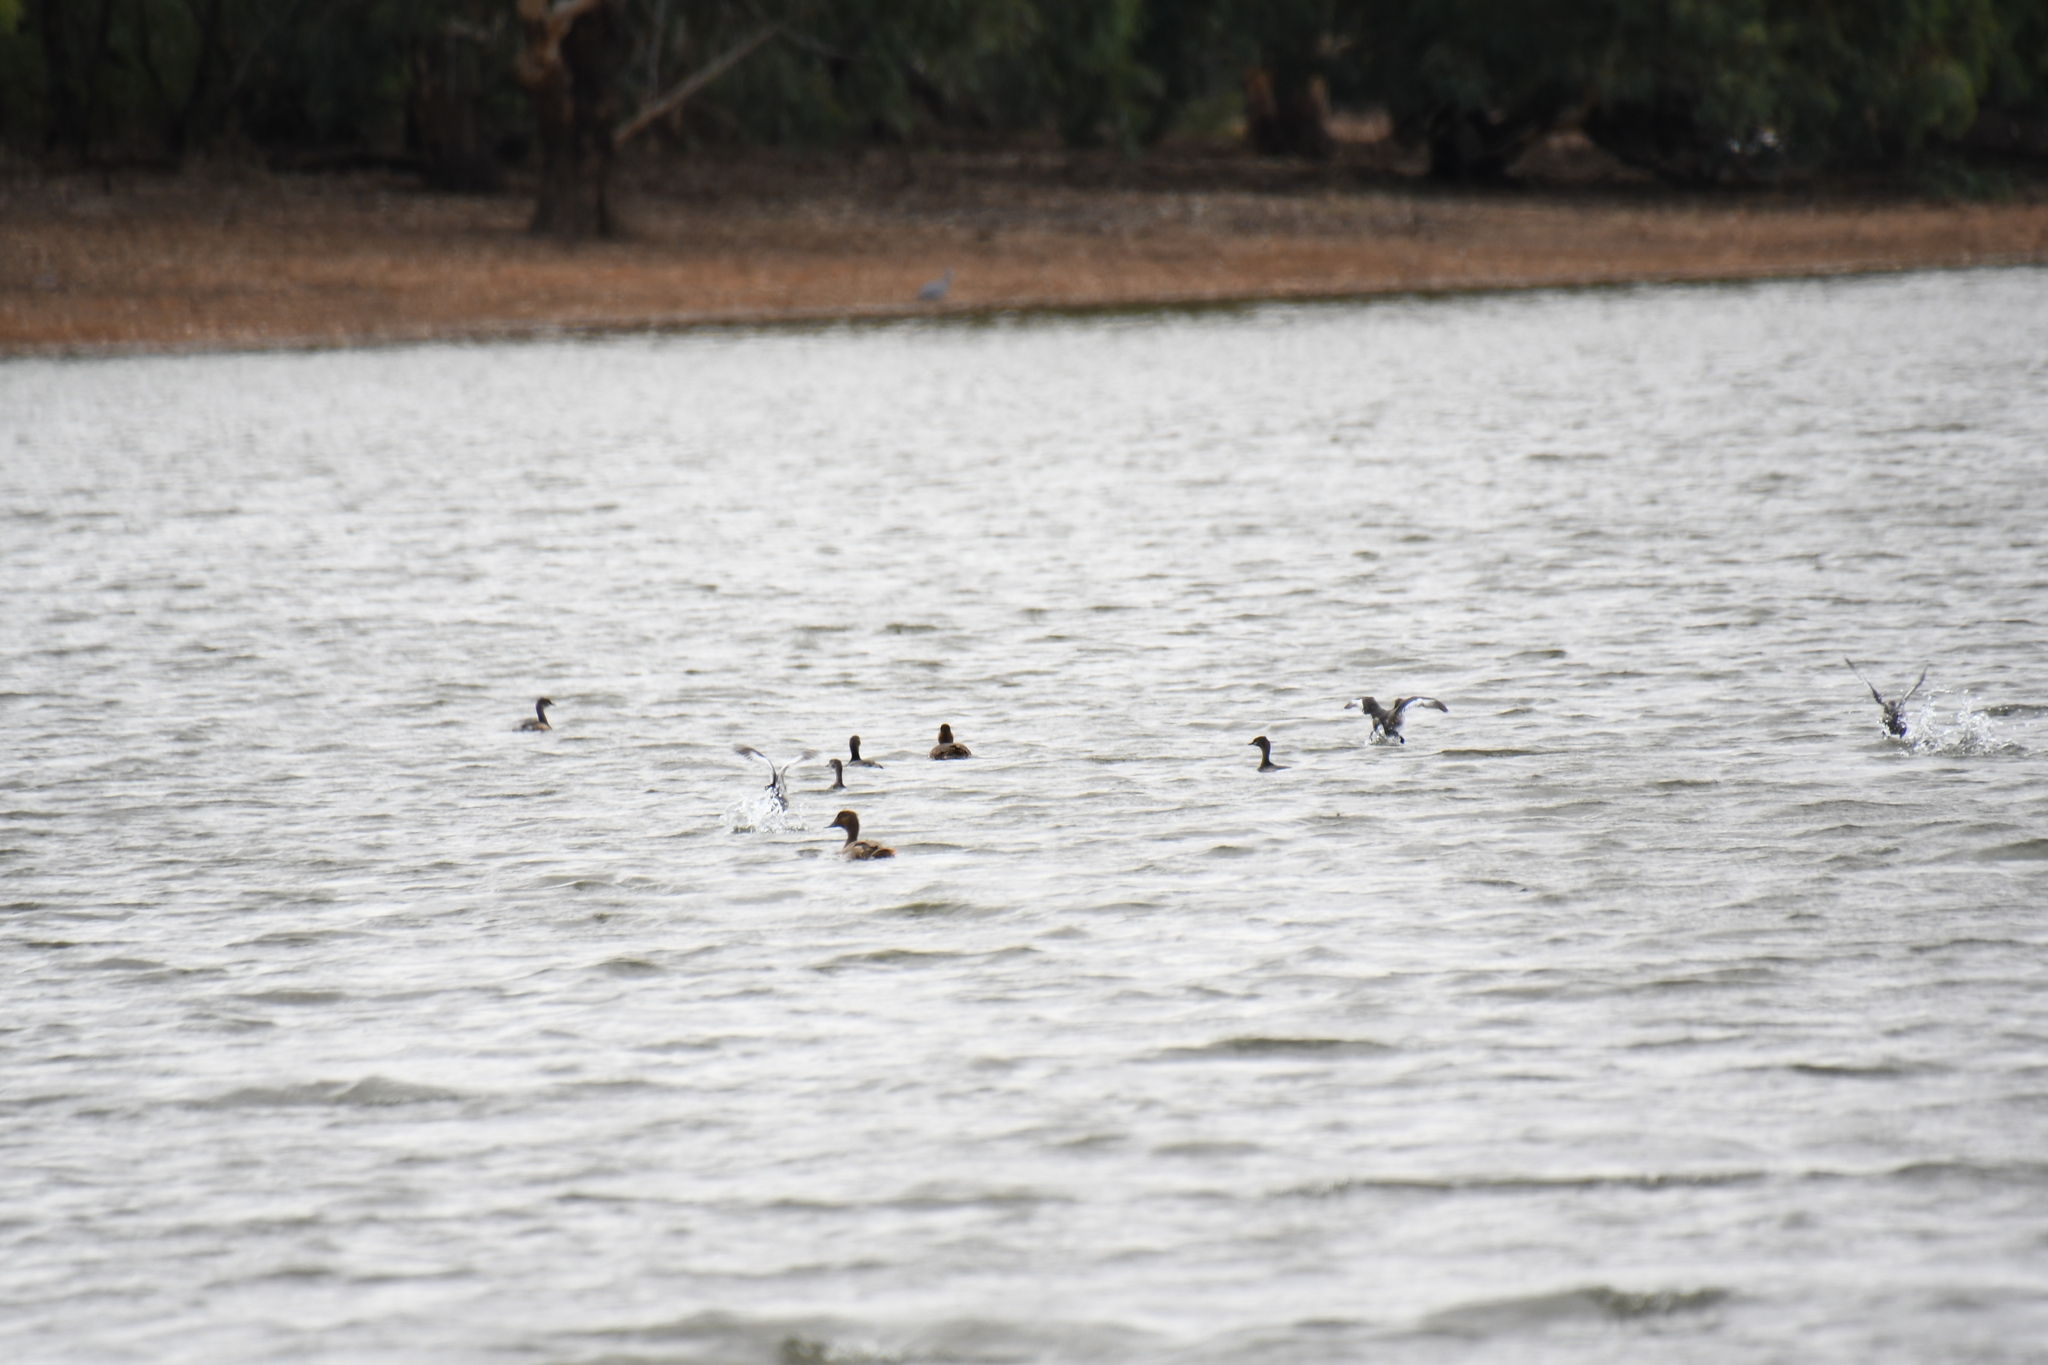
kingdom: Animalia
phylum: Chordata
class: Aves
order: Anseriformes
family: Anatidae
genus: Aythya
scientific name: Aythya australis
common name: Hardhead
